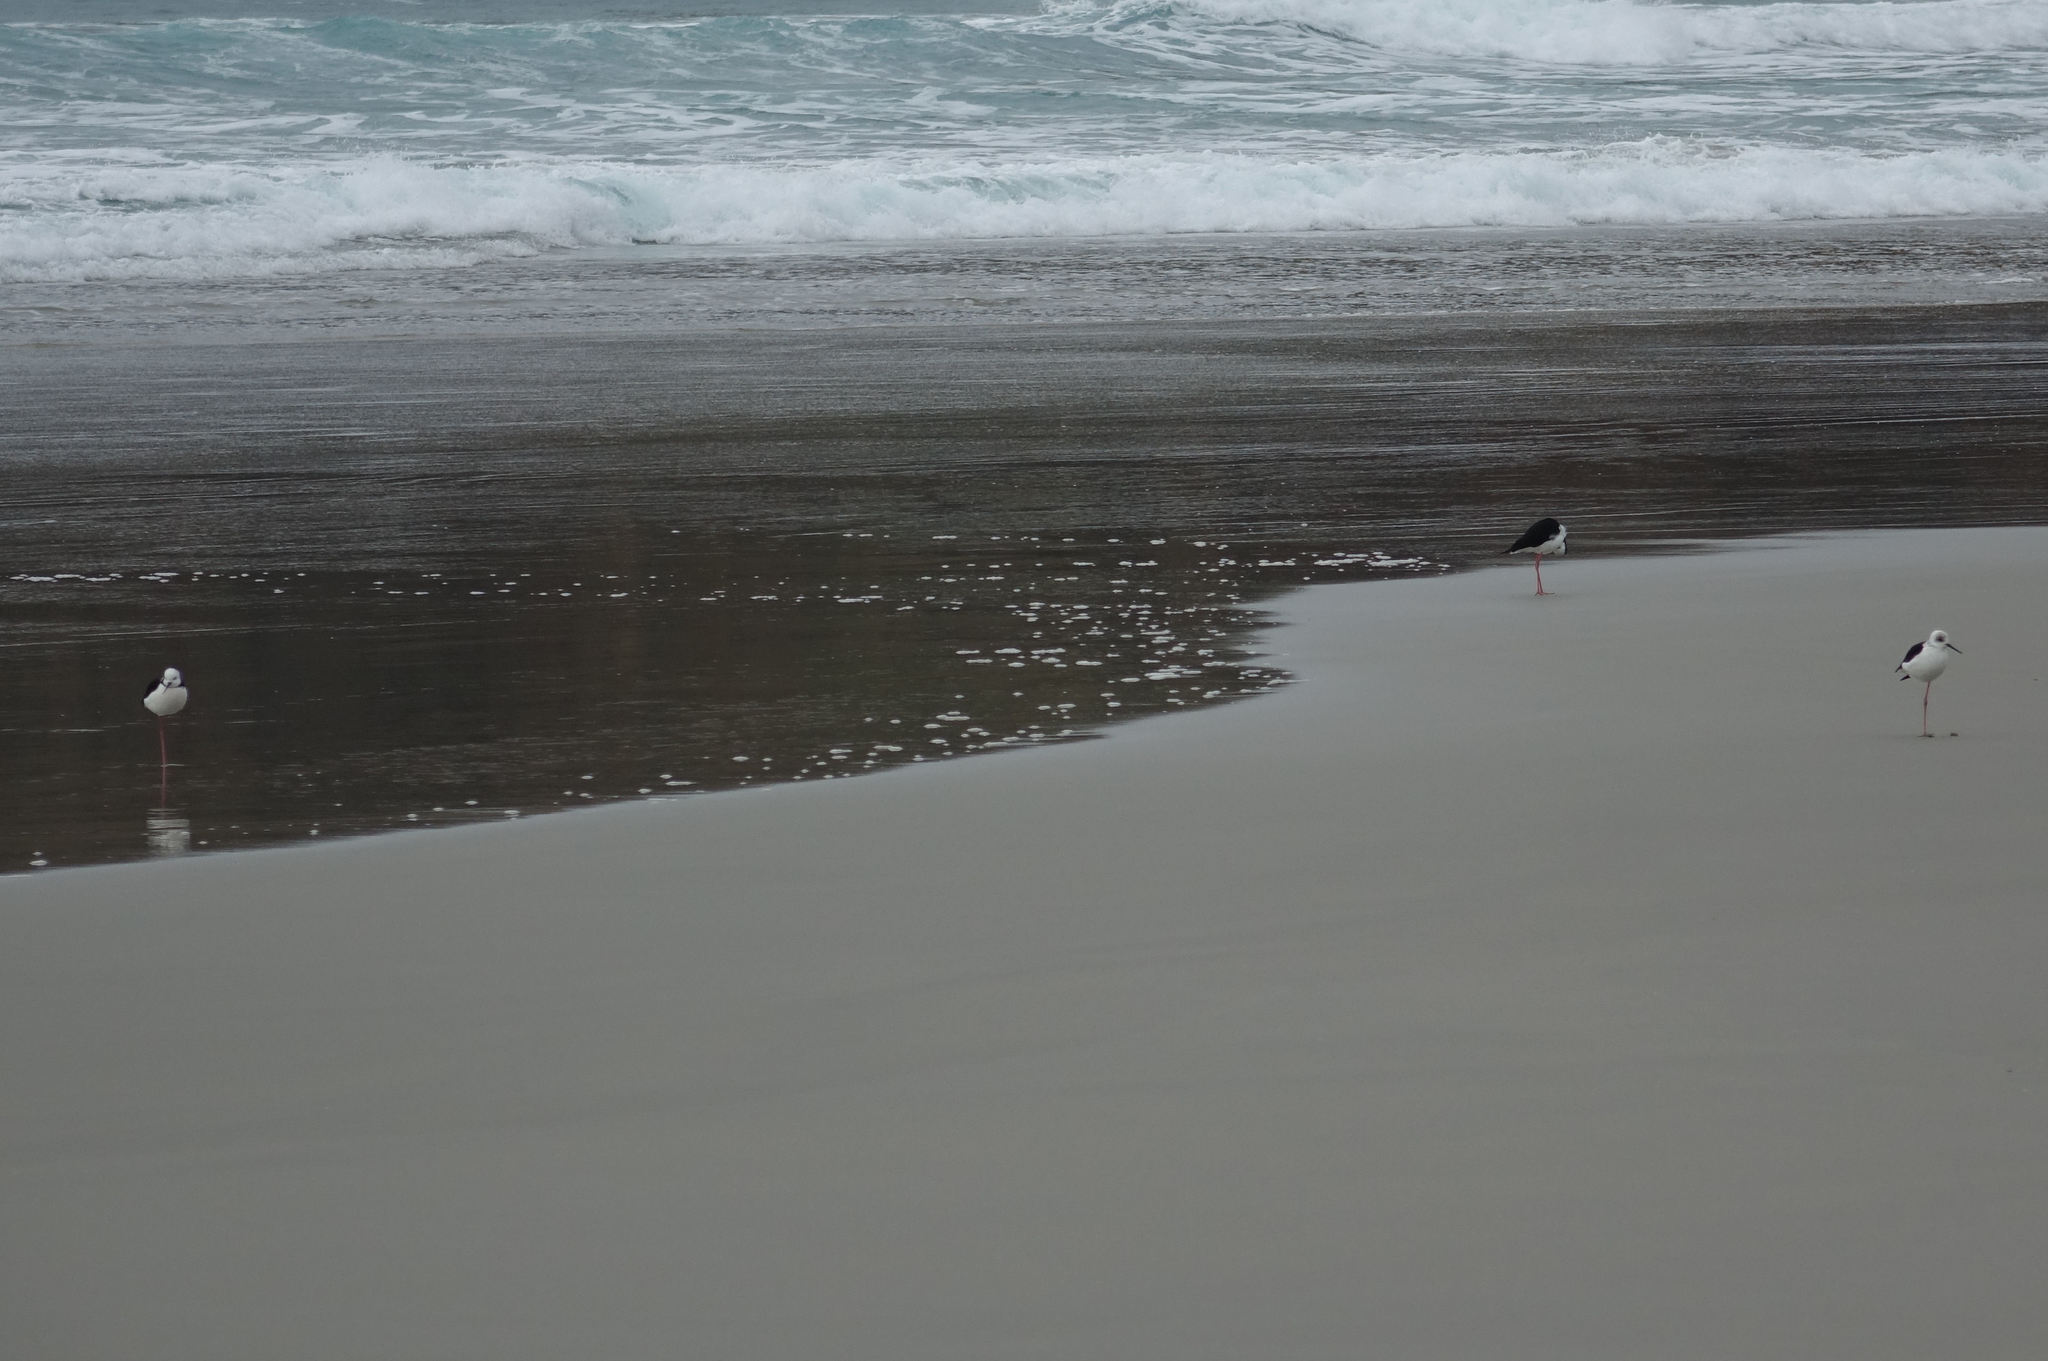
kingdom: Animalia
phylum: Chordata
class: Aves
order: Charadriiformes
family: Recurvirostridae
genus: Himantopus
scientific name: Himantopus leucocephalus
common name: White-headed stilt
